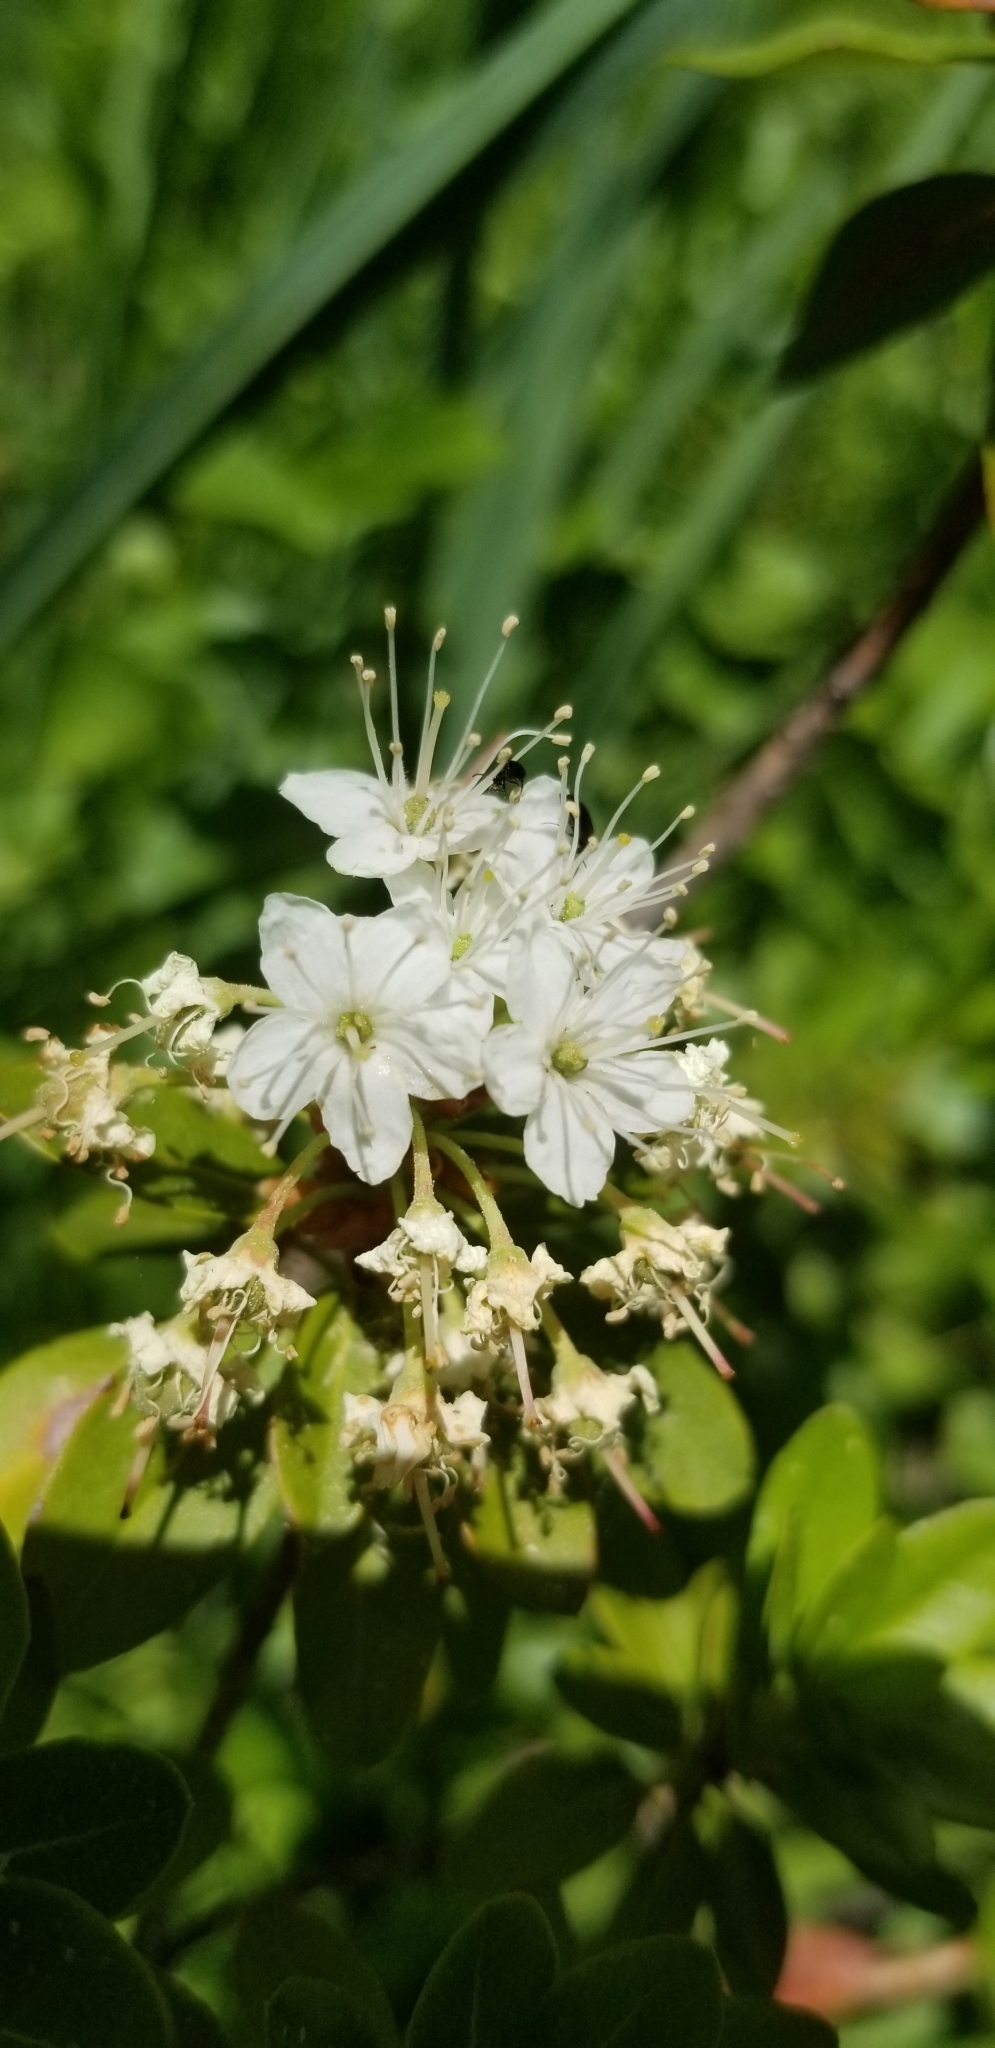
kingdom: Plantae
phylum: Tracheophyta
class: Magnoliopsida
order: Ericales
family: Ericaceae
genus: Rhododendron
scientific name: Rhododendron columbianum
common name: Western labrador tea
